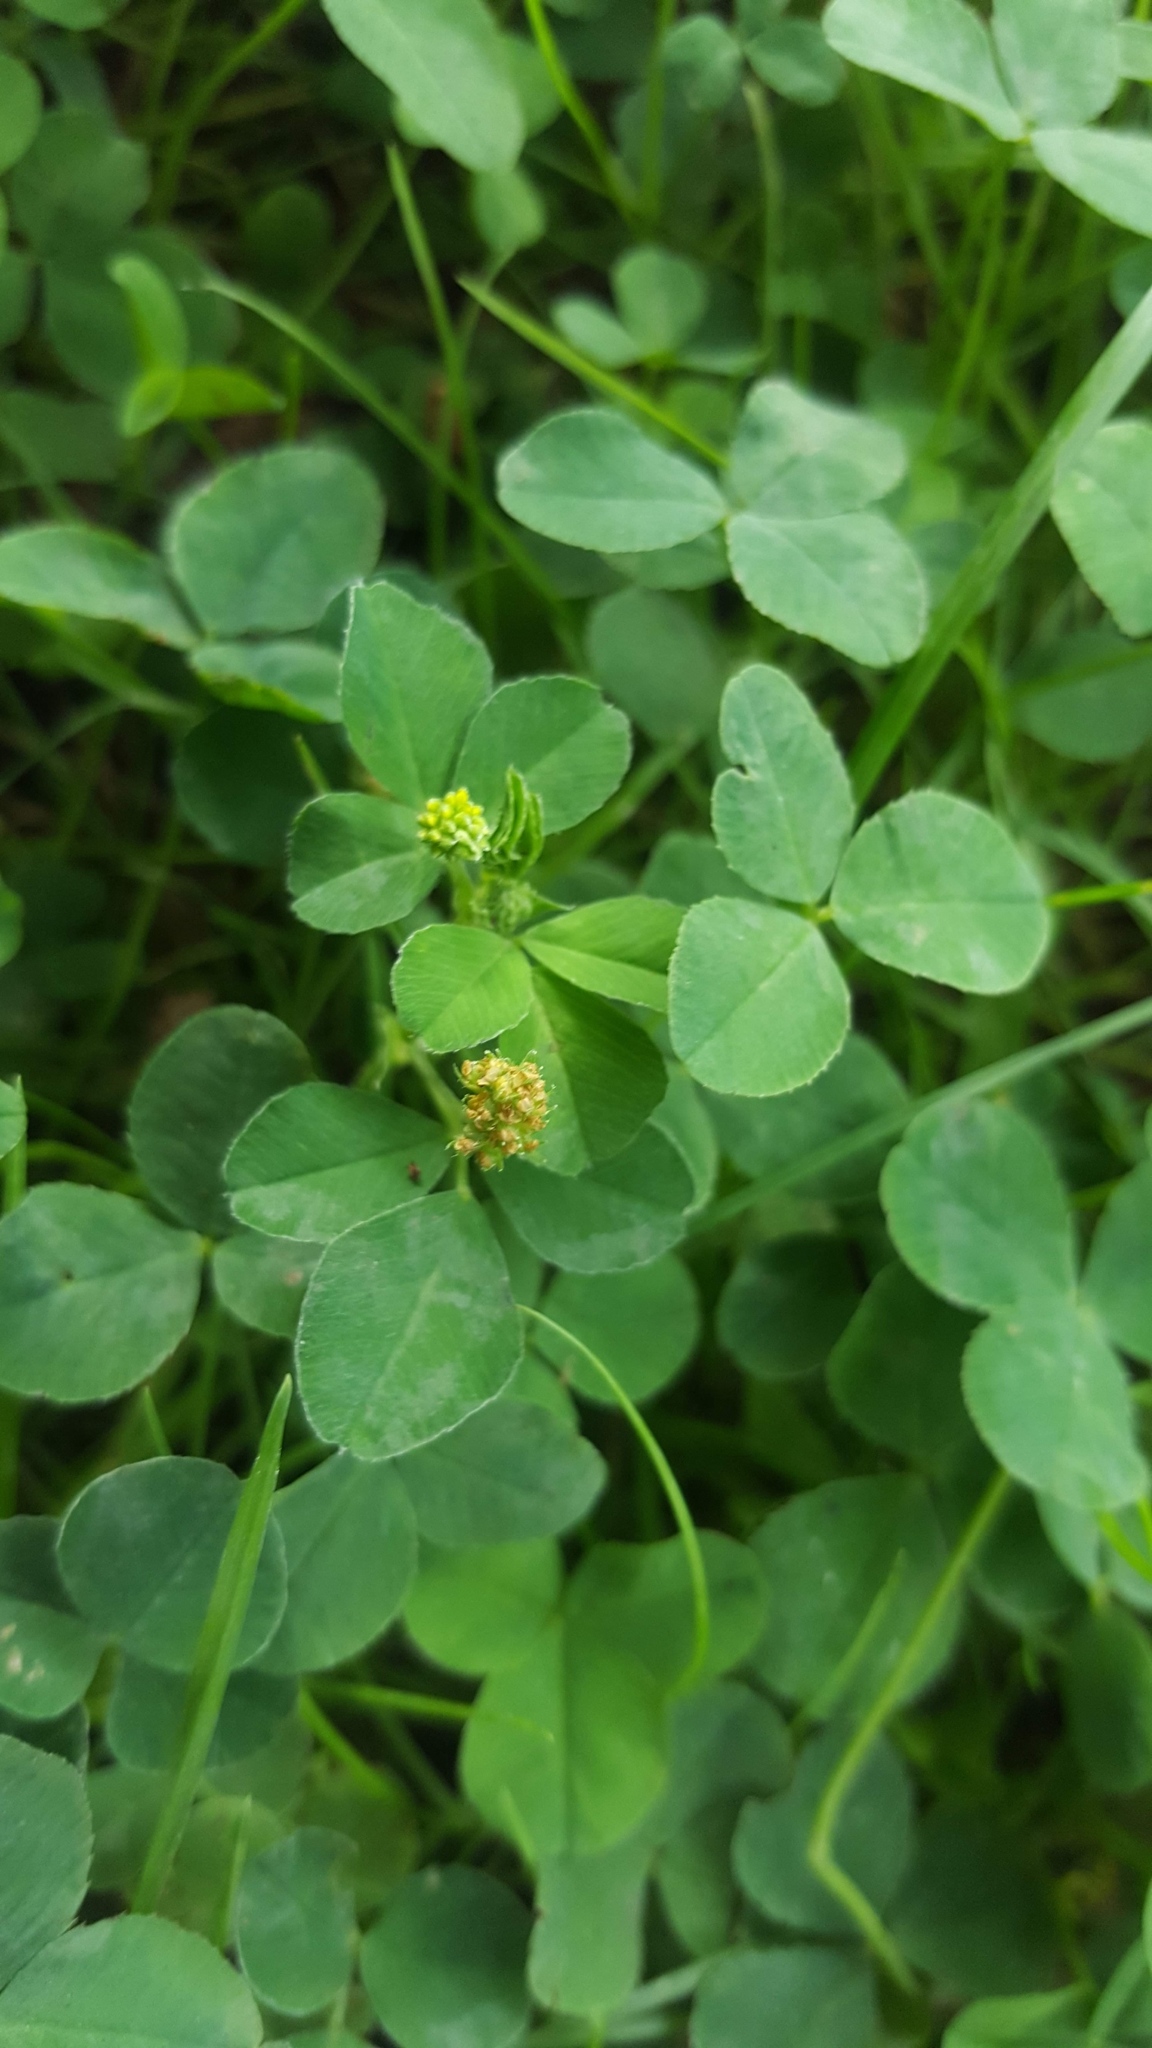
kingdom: Plantae
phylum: Tracheophyta
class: Magnoliopsida
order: Fabales
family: Fabaceae
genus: Medicago
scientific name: Medicago lupulina
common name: Black medick
